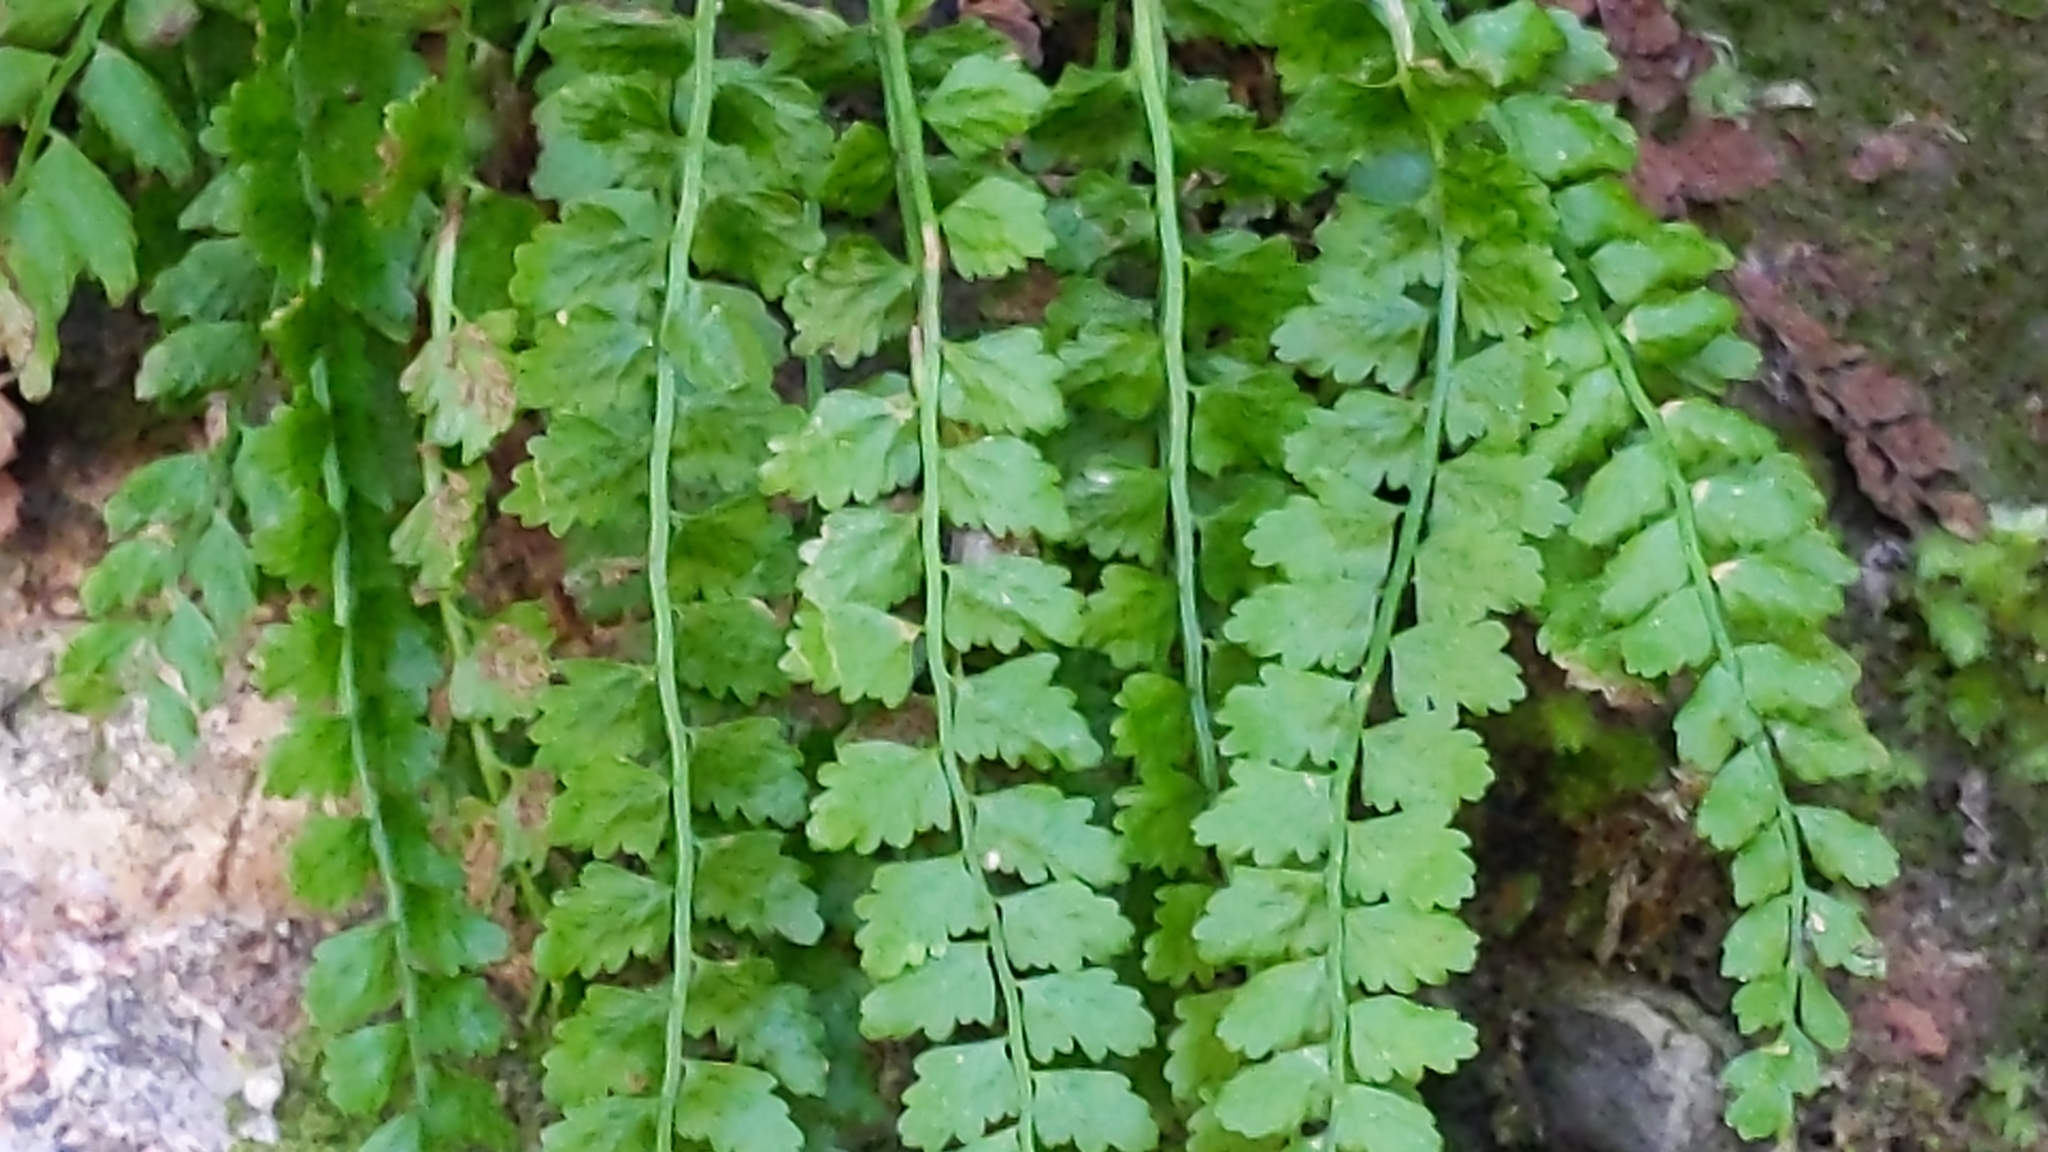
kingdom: Plantae
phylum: Tracheophyta
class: Polypodiopsida
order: Polypodiales
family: Aspleniaceae
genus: Asplenium
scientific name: Asplenium viride
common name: Green spleenwort
